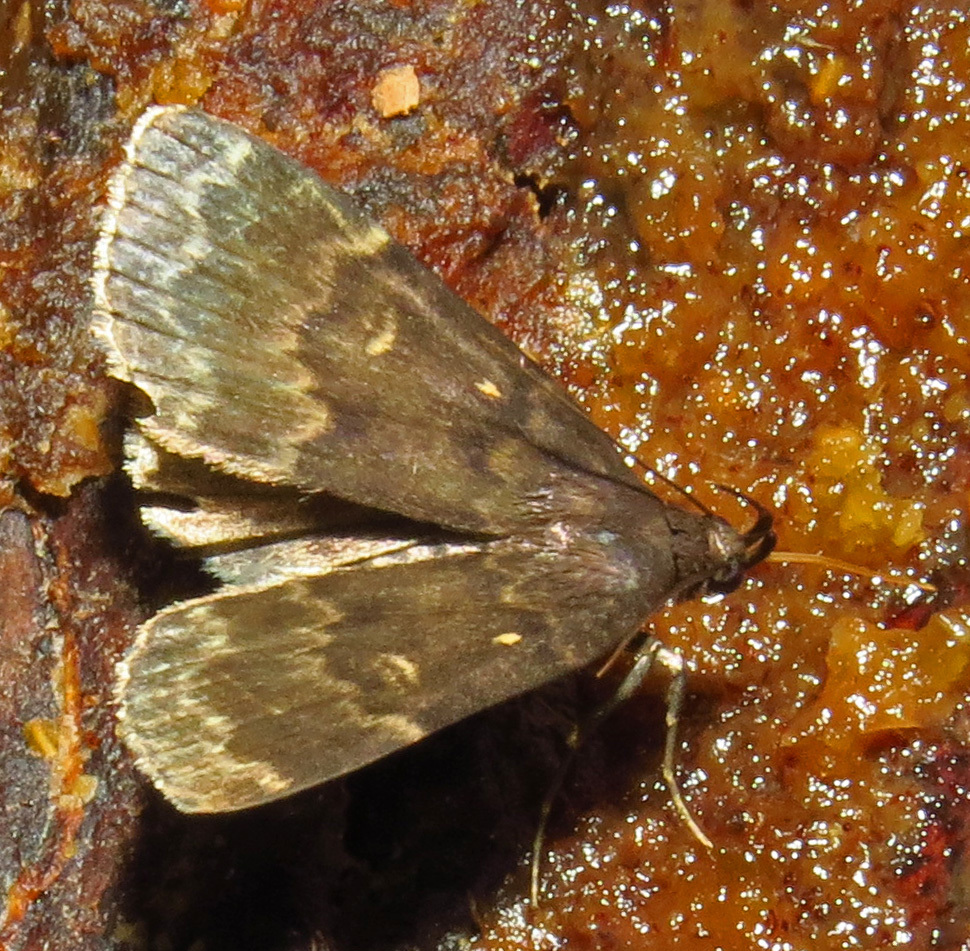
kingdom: Animalia
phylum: Arthropoda
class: Insecta
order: Lepidoptera
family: Erebidae
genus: Idia
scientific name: Idia lubricalis
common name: Twin-striped tabby
